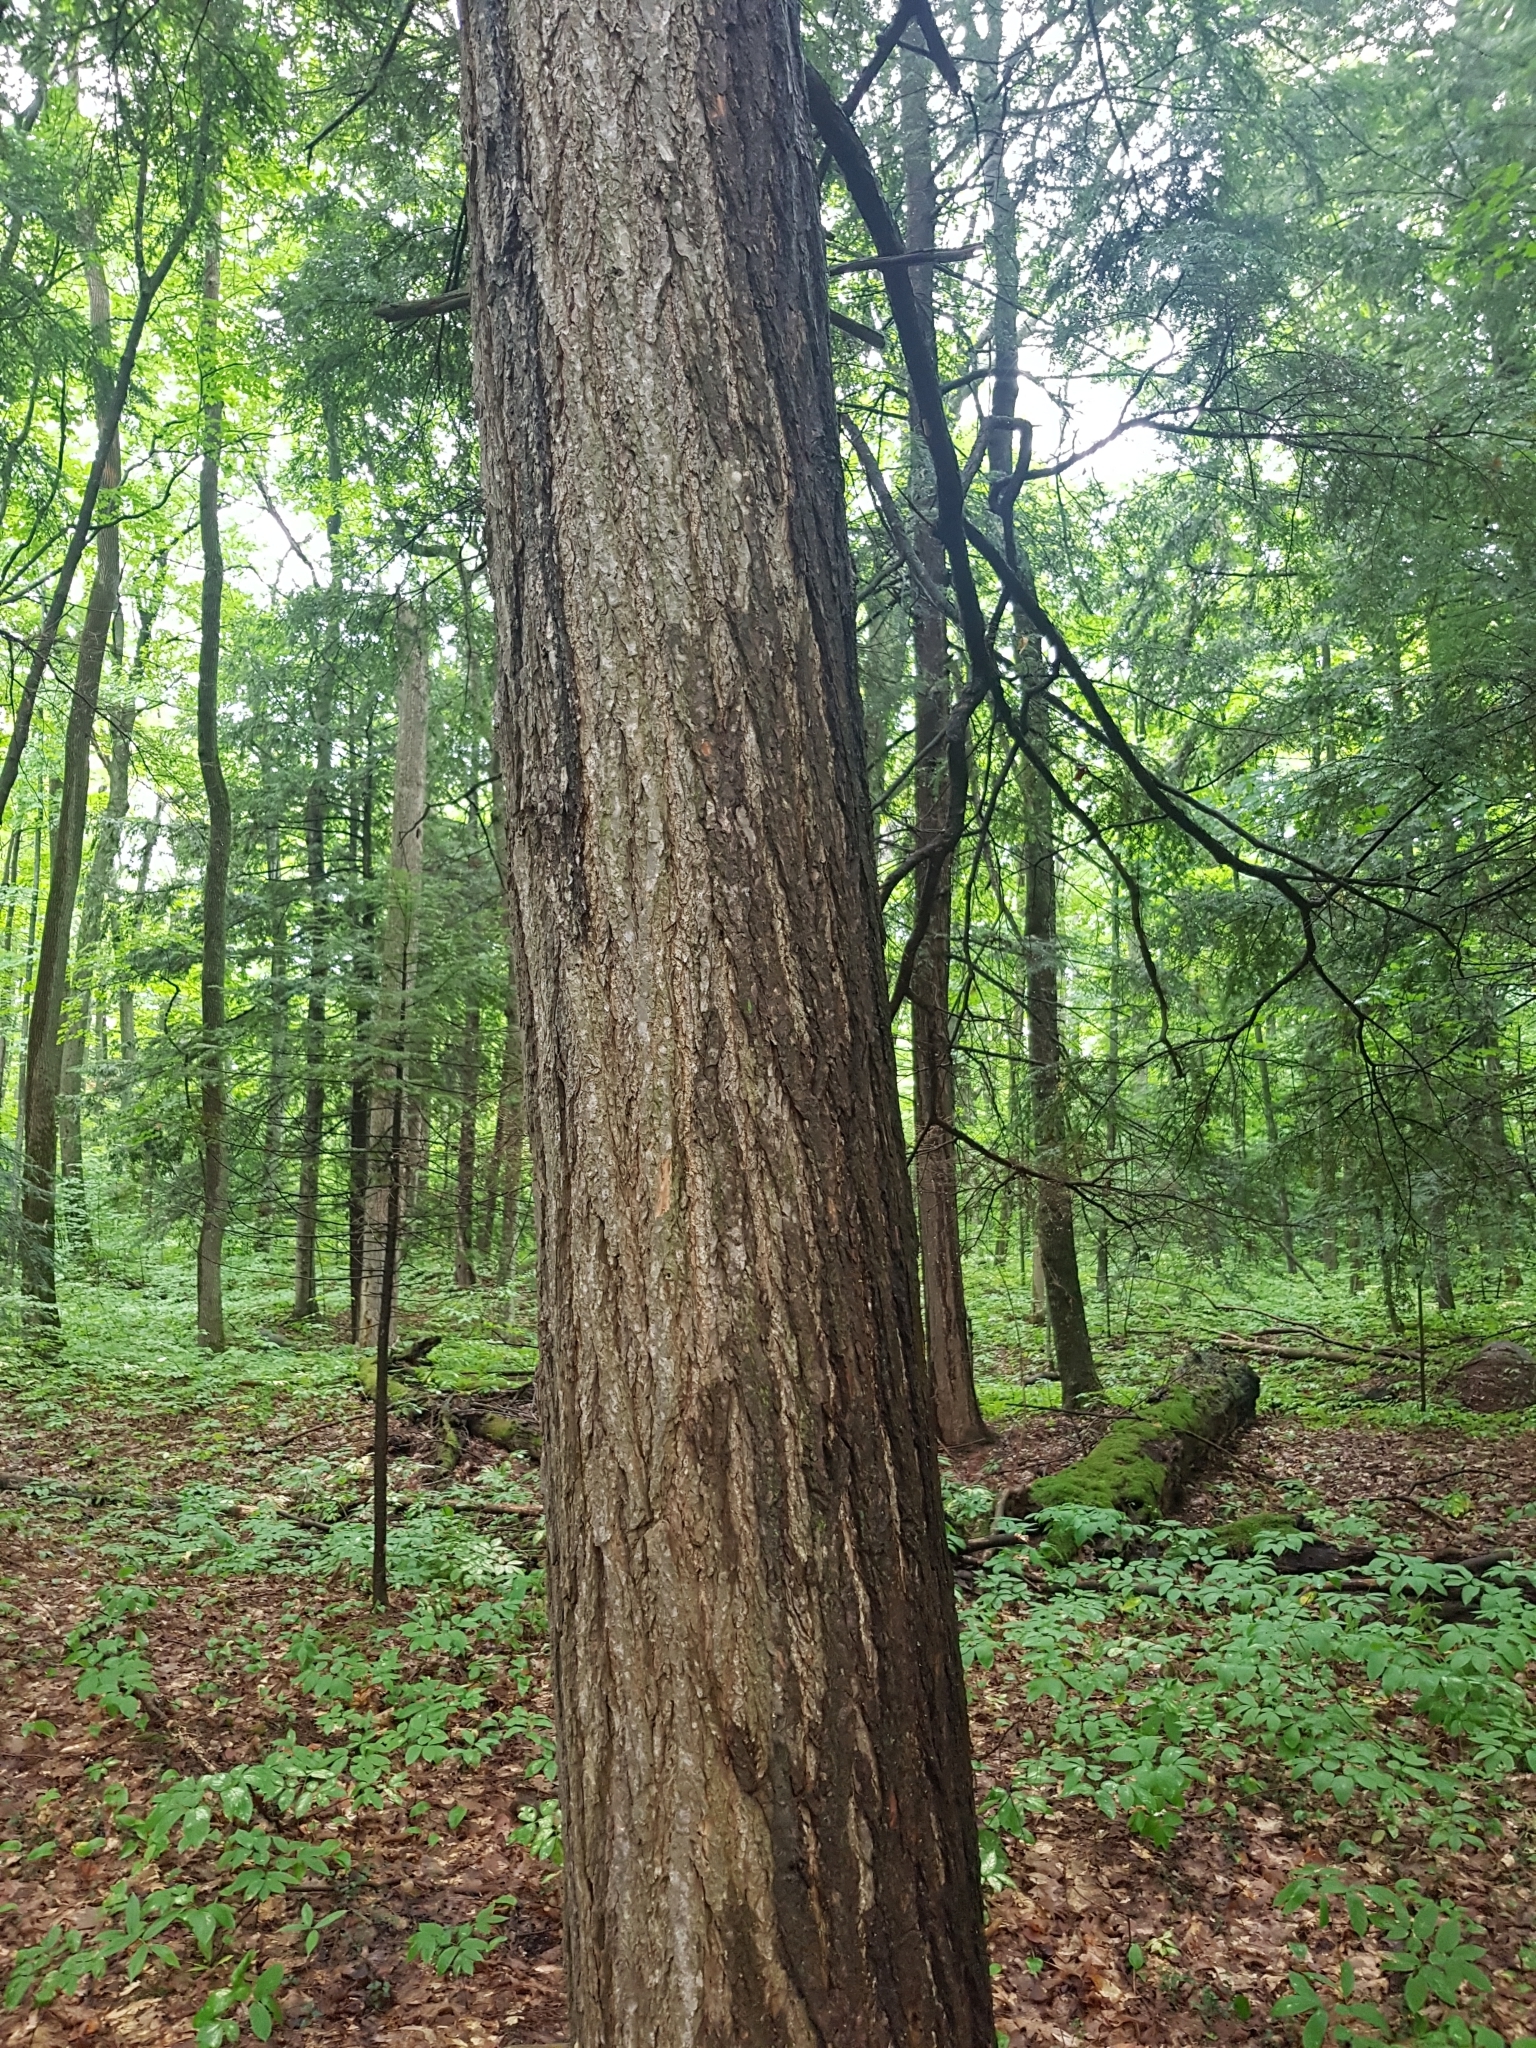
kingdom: Plantae
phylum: Tracheophyta
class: Pinopsida
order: Pinales
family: Pinaceae
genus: Tsuga
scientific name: Tsuga canadensis
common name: Eastern hemlock
